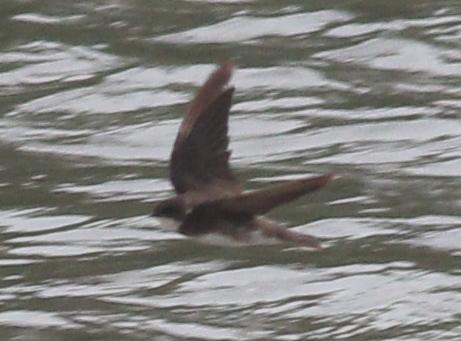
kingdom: Animalia
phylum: Chordata
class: Aves
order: Passeriformes
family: Hirundinidae
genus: Riparia
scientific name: Riparia riparia
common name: Sand martin
